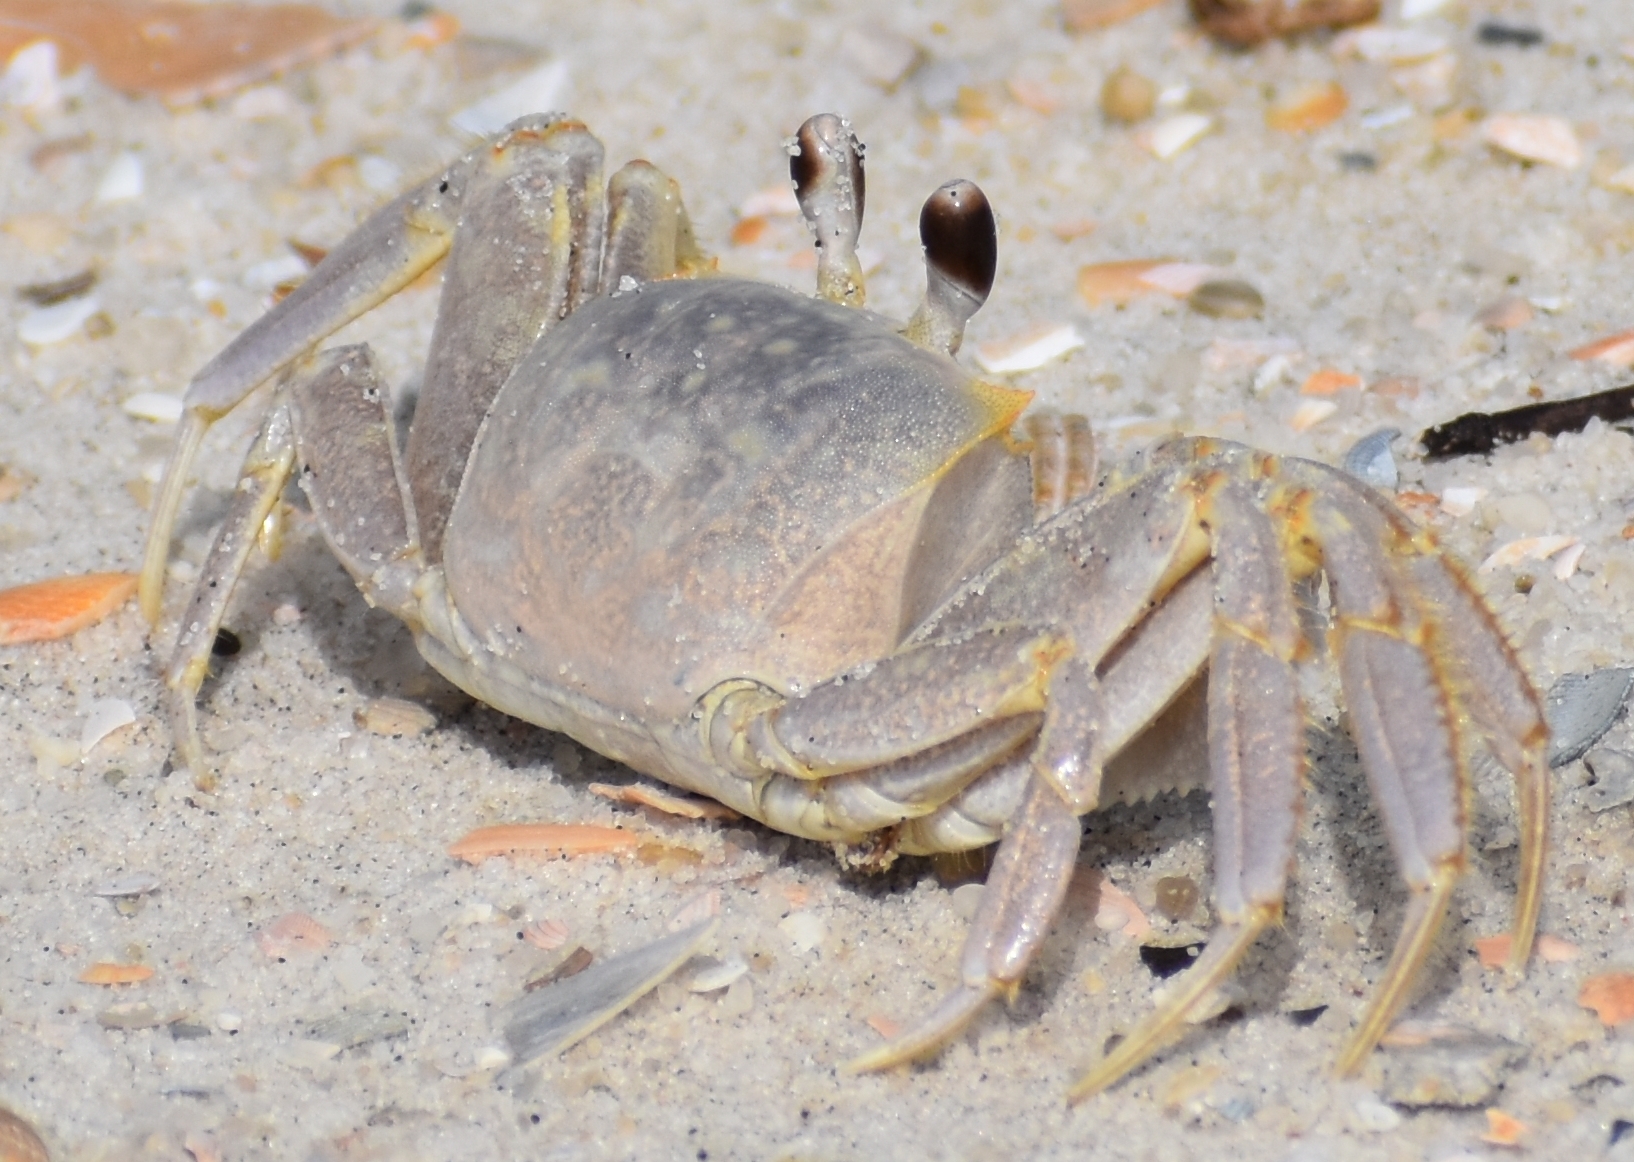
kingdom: Animalia
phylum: Arthropoda
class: Malacostraca
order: Decapoda
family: Ocypodidae
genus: Ocypode
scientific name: Ocypode quadrata
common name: Ghost crab
